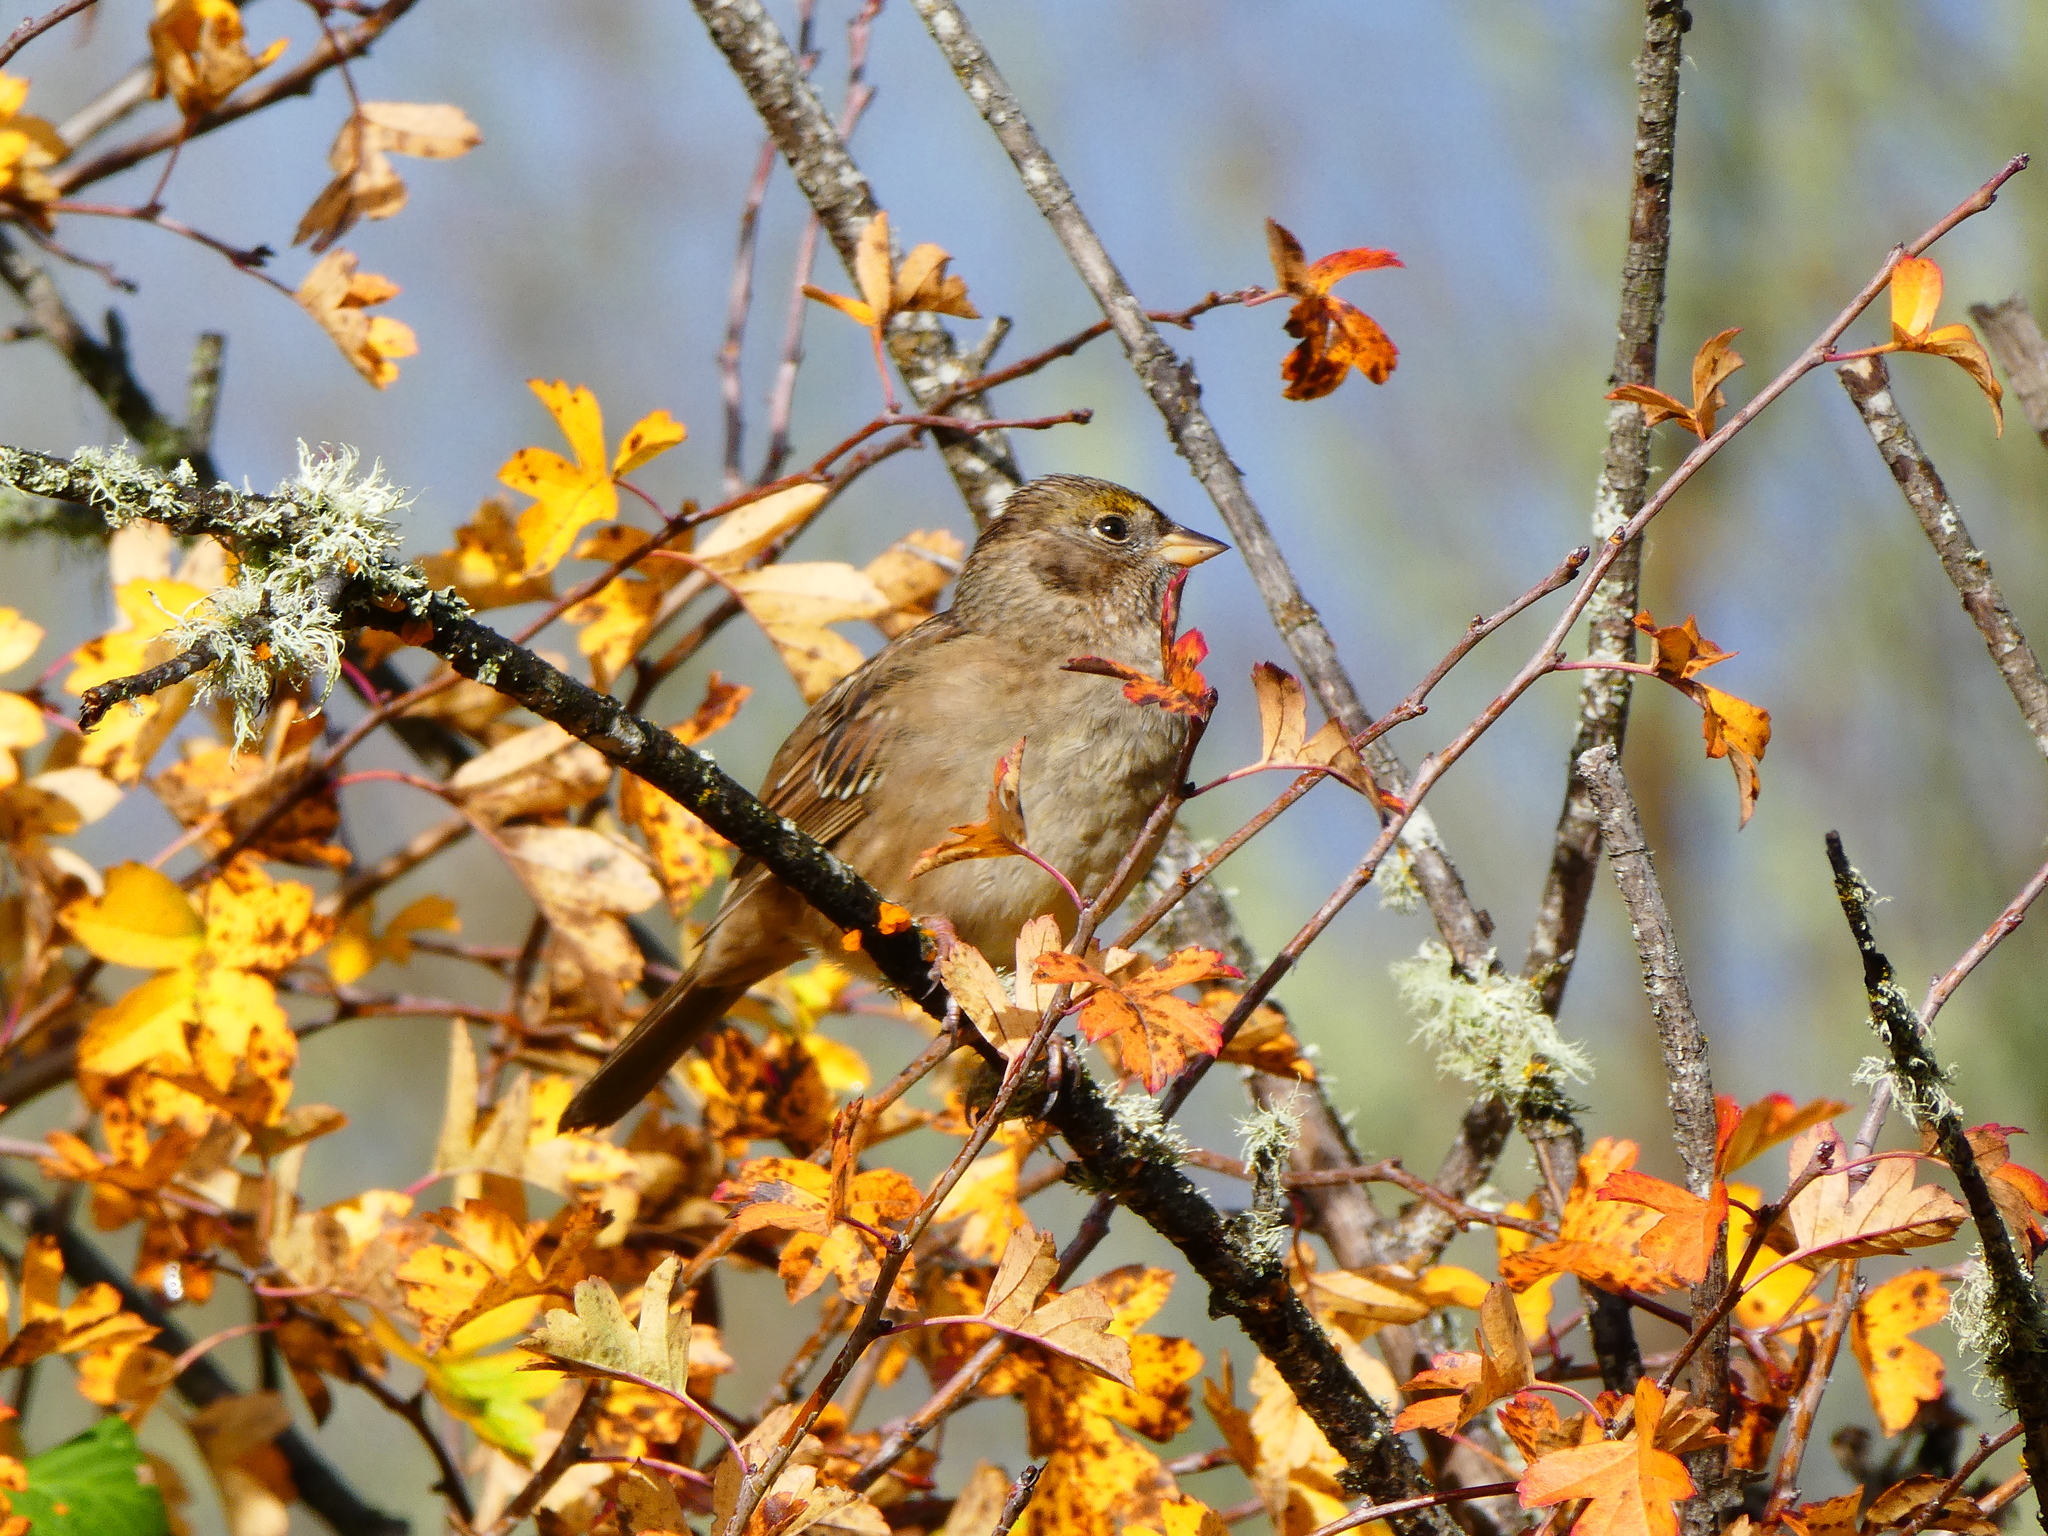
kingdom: Animalia
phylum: Chordata
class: Aves
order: Passeriformes
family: Passerellidae
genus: Zonotrichia
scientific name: Zonotrichia atricapilla
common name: Golden-crowned sparrow
